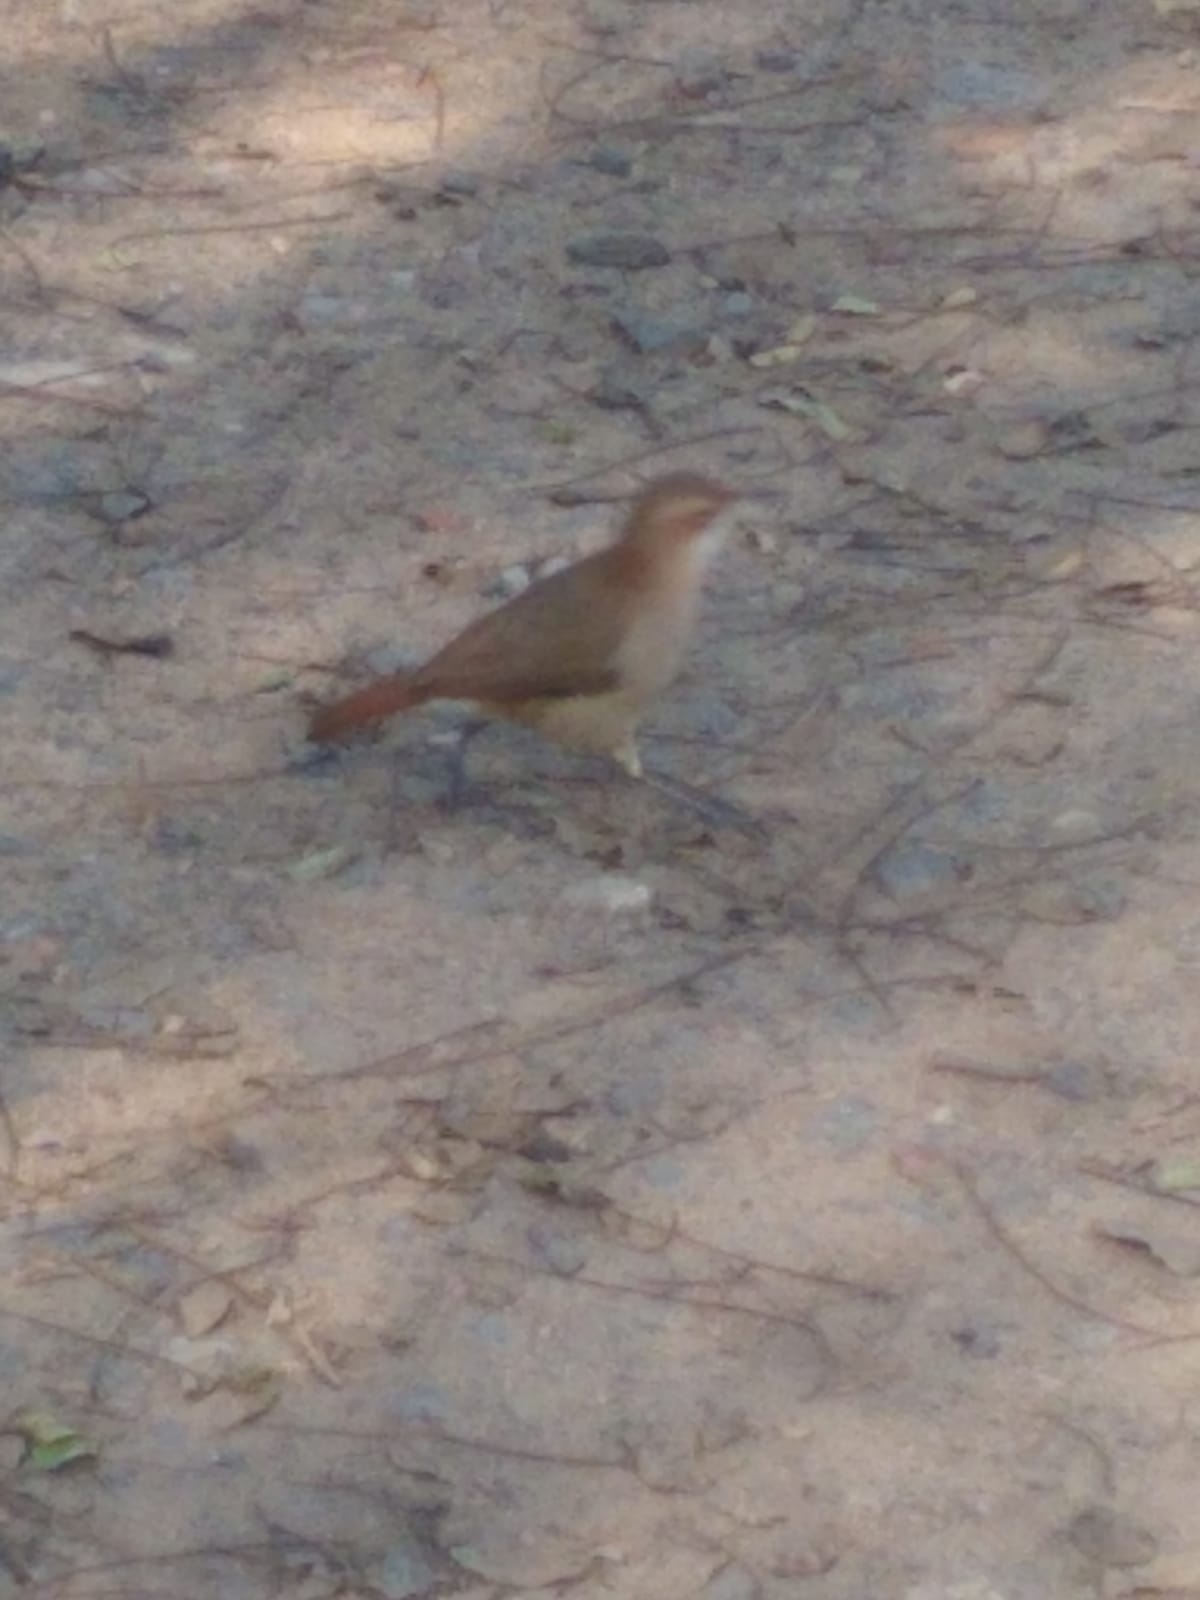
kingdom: Animalia
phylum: Chordata
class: Aves
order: Passeriformes
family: Furnariidae
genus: Furnarius
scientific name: Furnarius rufus
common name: Rufous hornero
